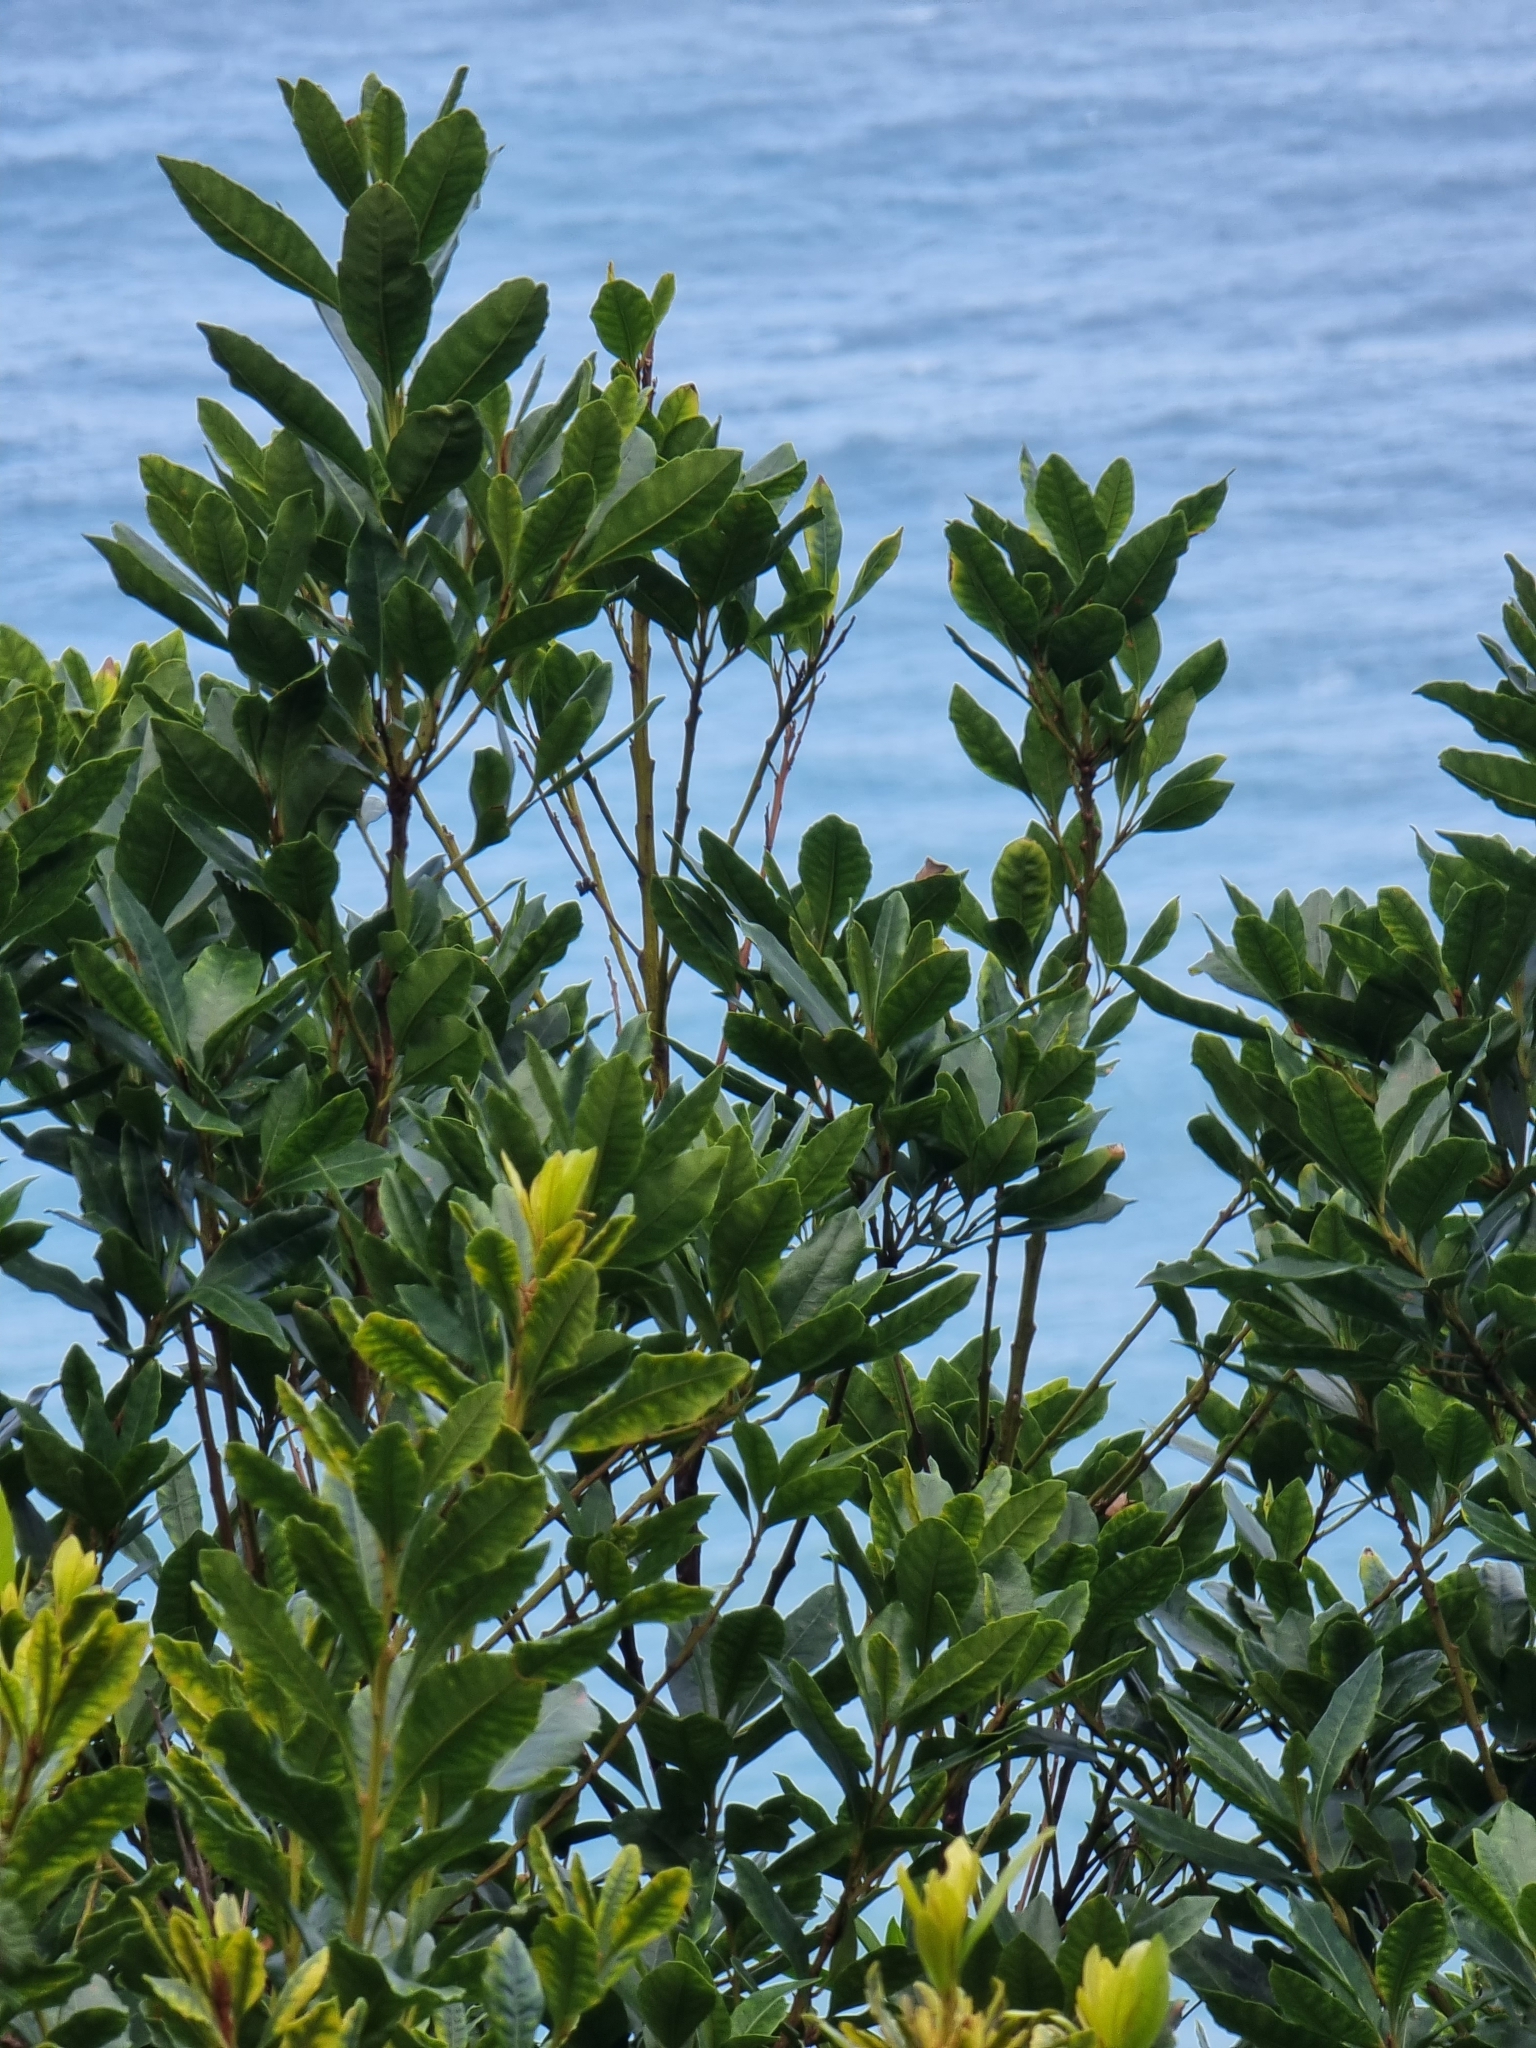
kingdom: Plantae
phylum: Tracheophyta
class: Magnoliopsida
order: Fagales
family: Myricaceae
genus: Morella
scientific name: Morella faya
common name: Firetree
